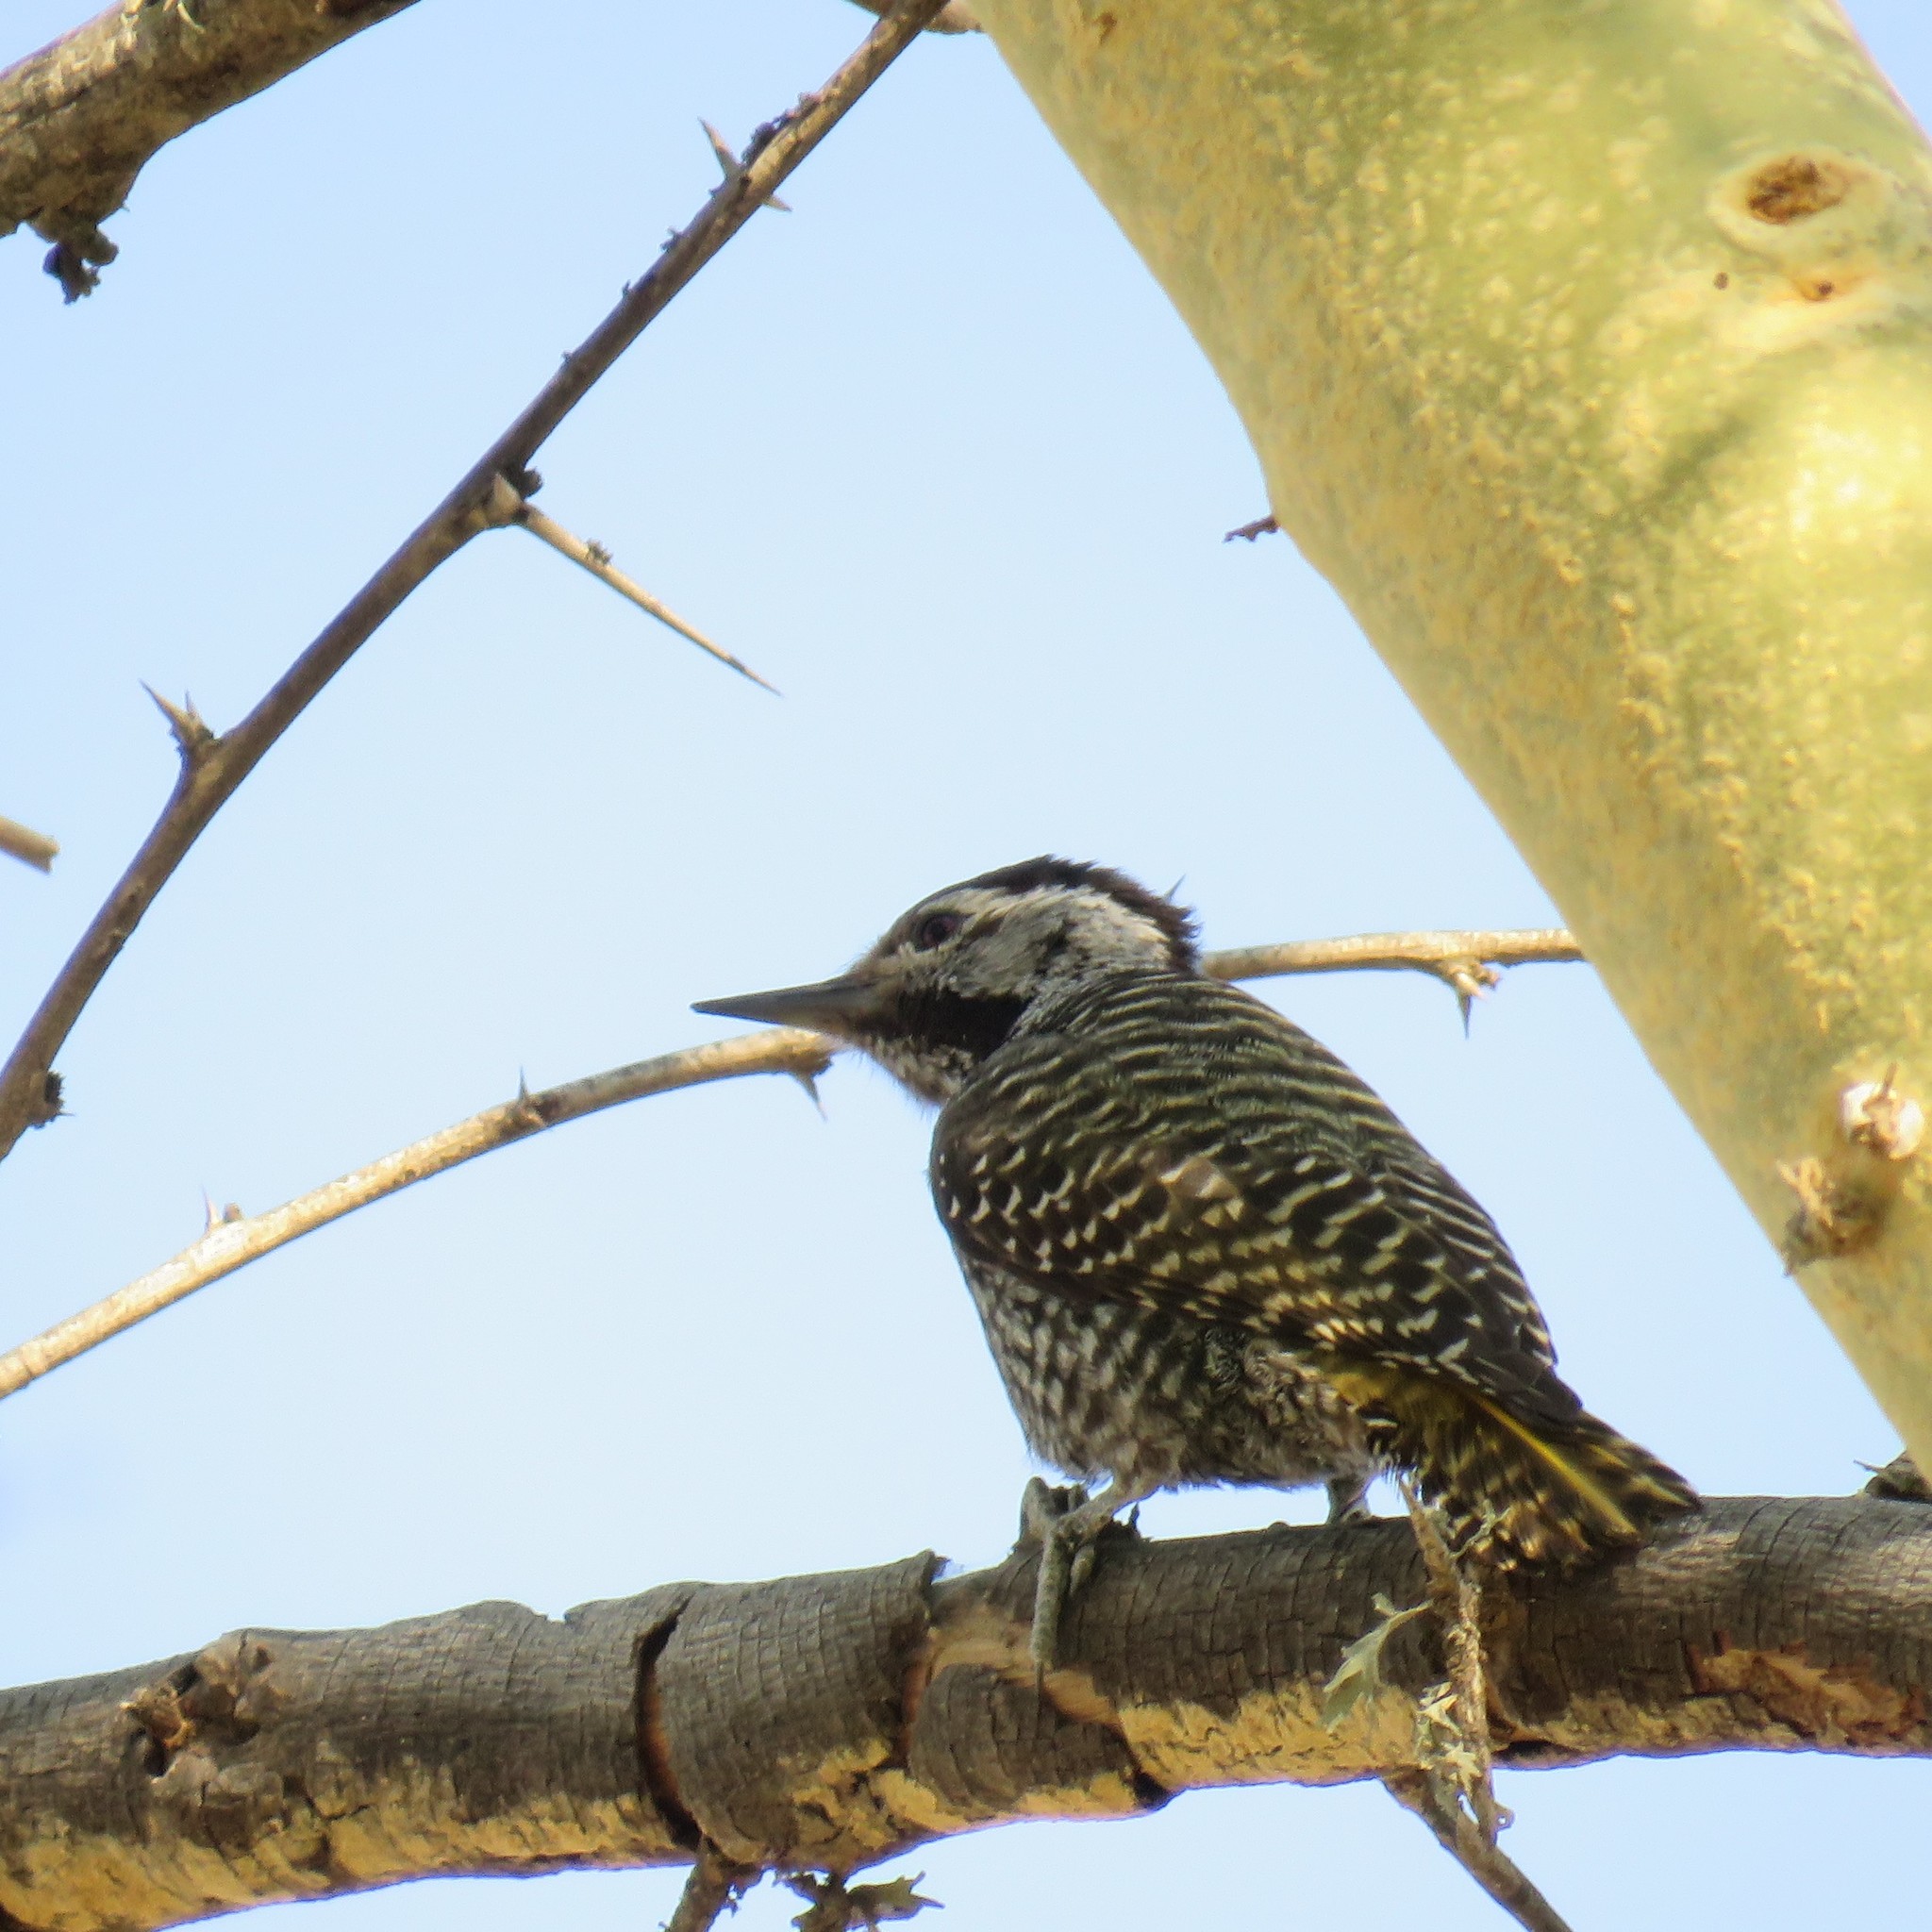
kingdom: Animalia
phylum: Chordata
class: Aves
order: Piciformes
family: Picidae
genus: Dendropicos
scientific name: Dendropicos fuscescens
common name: Cardinal woodpecker
